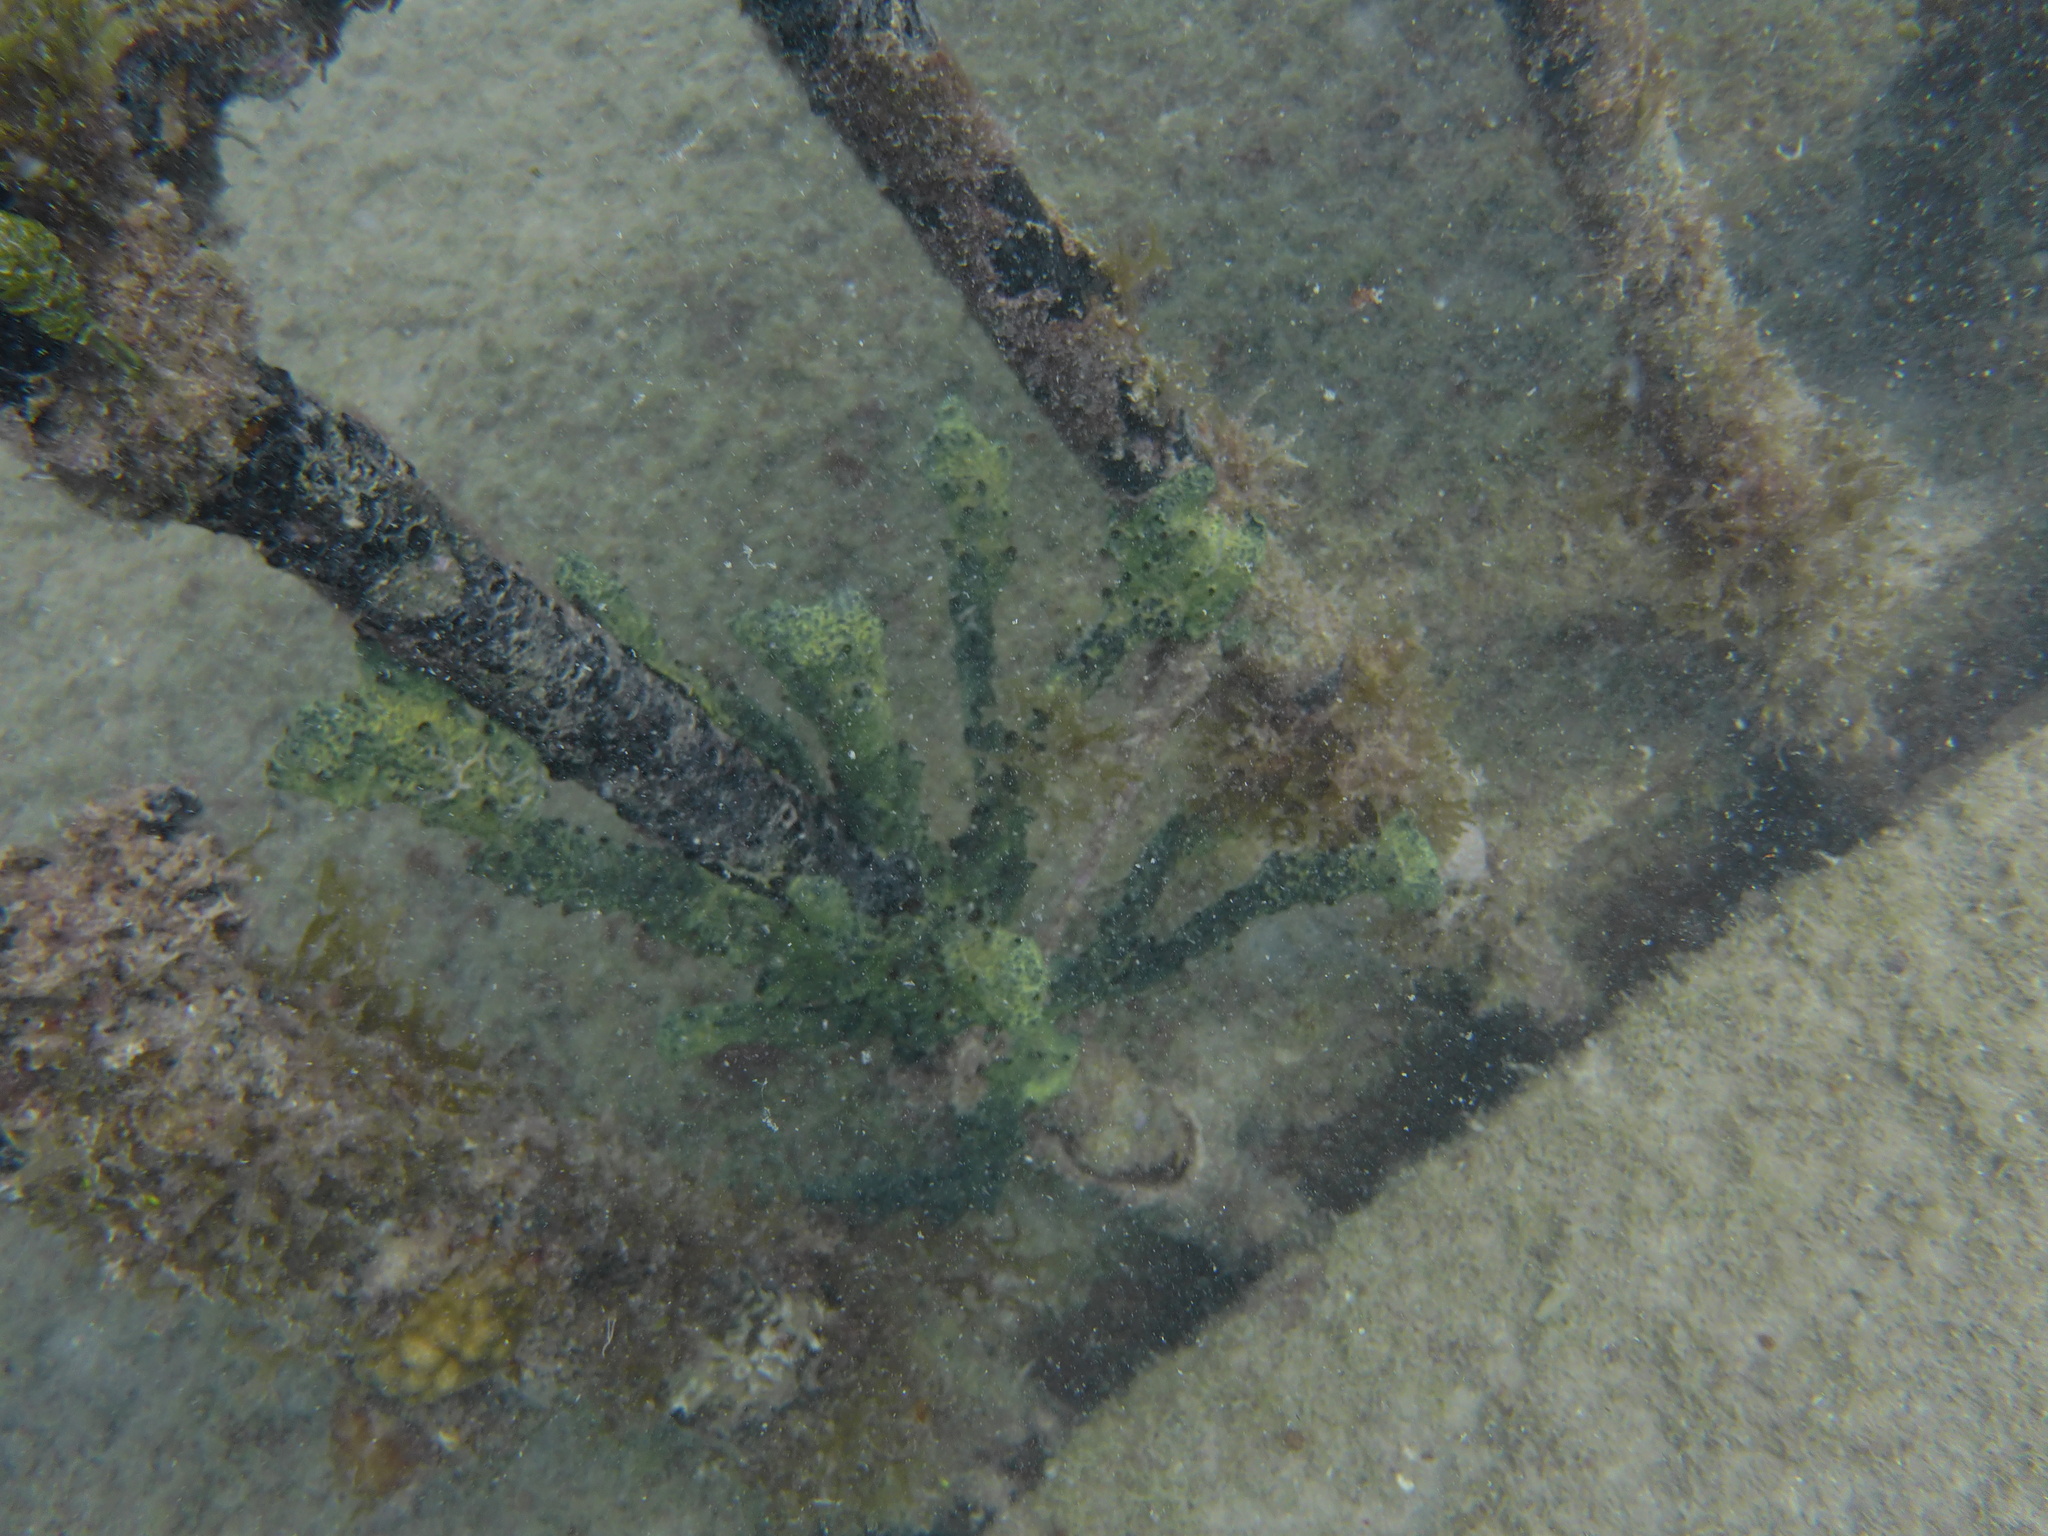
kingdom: Animalia
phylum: Porifera
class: Demospongiae
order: Poecilosclerida
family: Iotrochotidae
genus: Iotrochota
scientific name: Iotrochota birotulata
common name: Purple bleeding sponge
